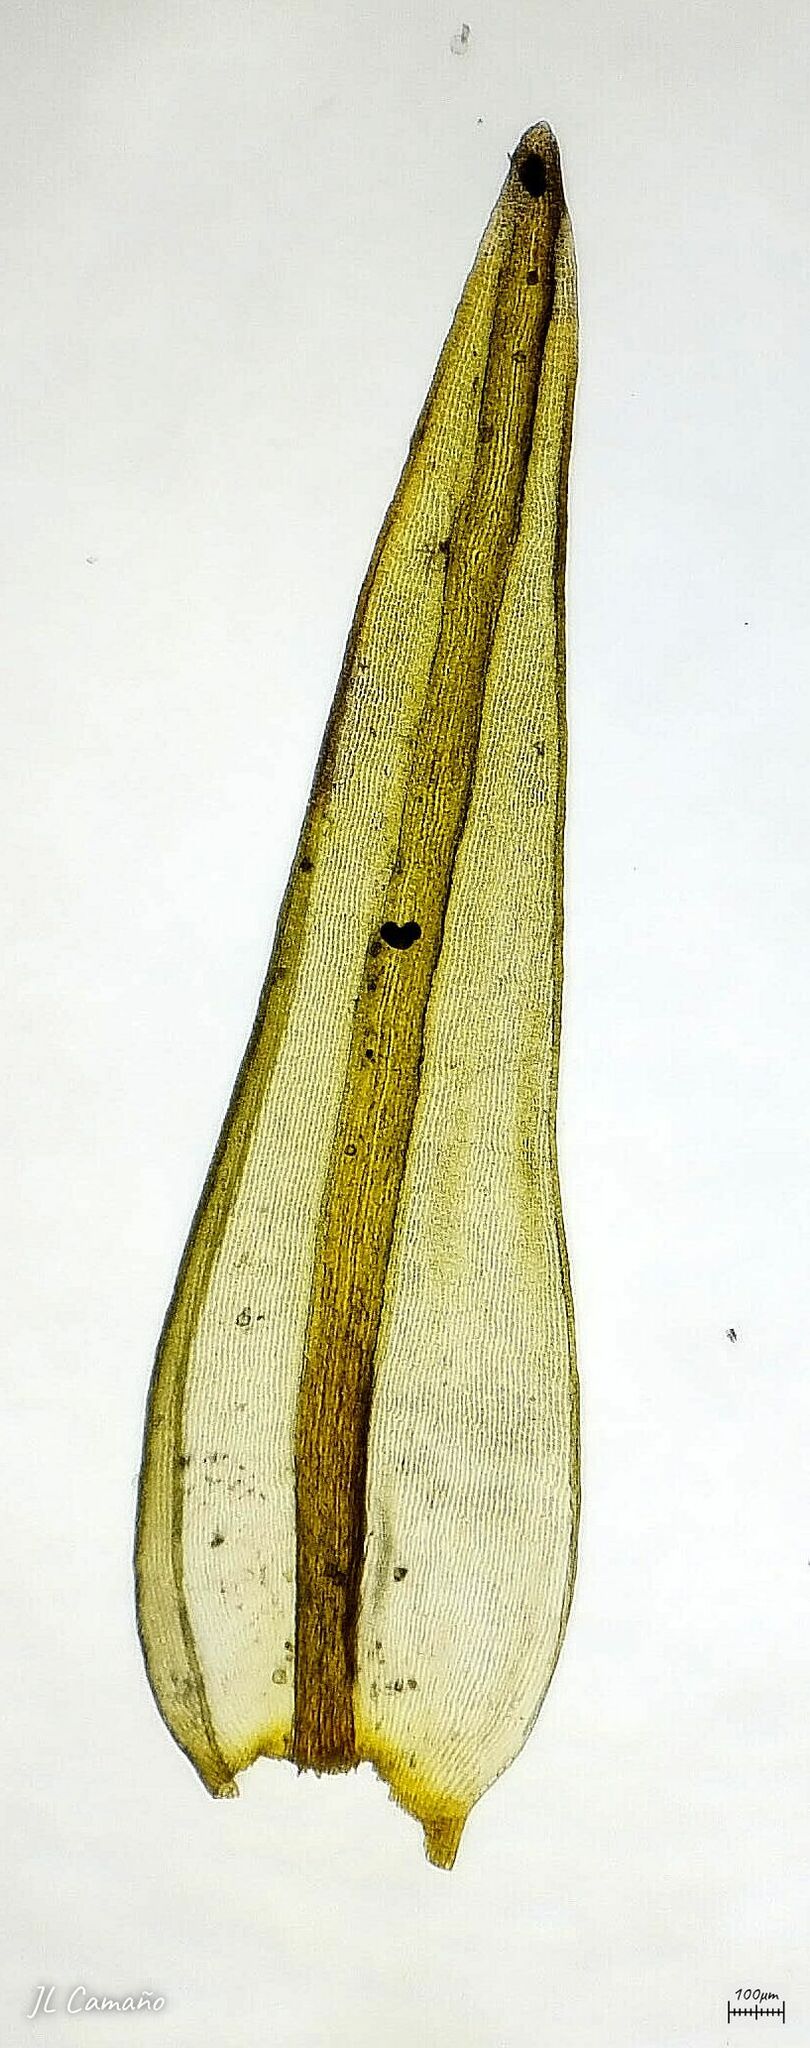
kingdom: Plantae
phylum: Bryophyta
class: Bryopsida
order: Grimmiales
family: Grimmiaceae
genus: Codriophorus
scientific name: Codriophorus aquaticus
